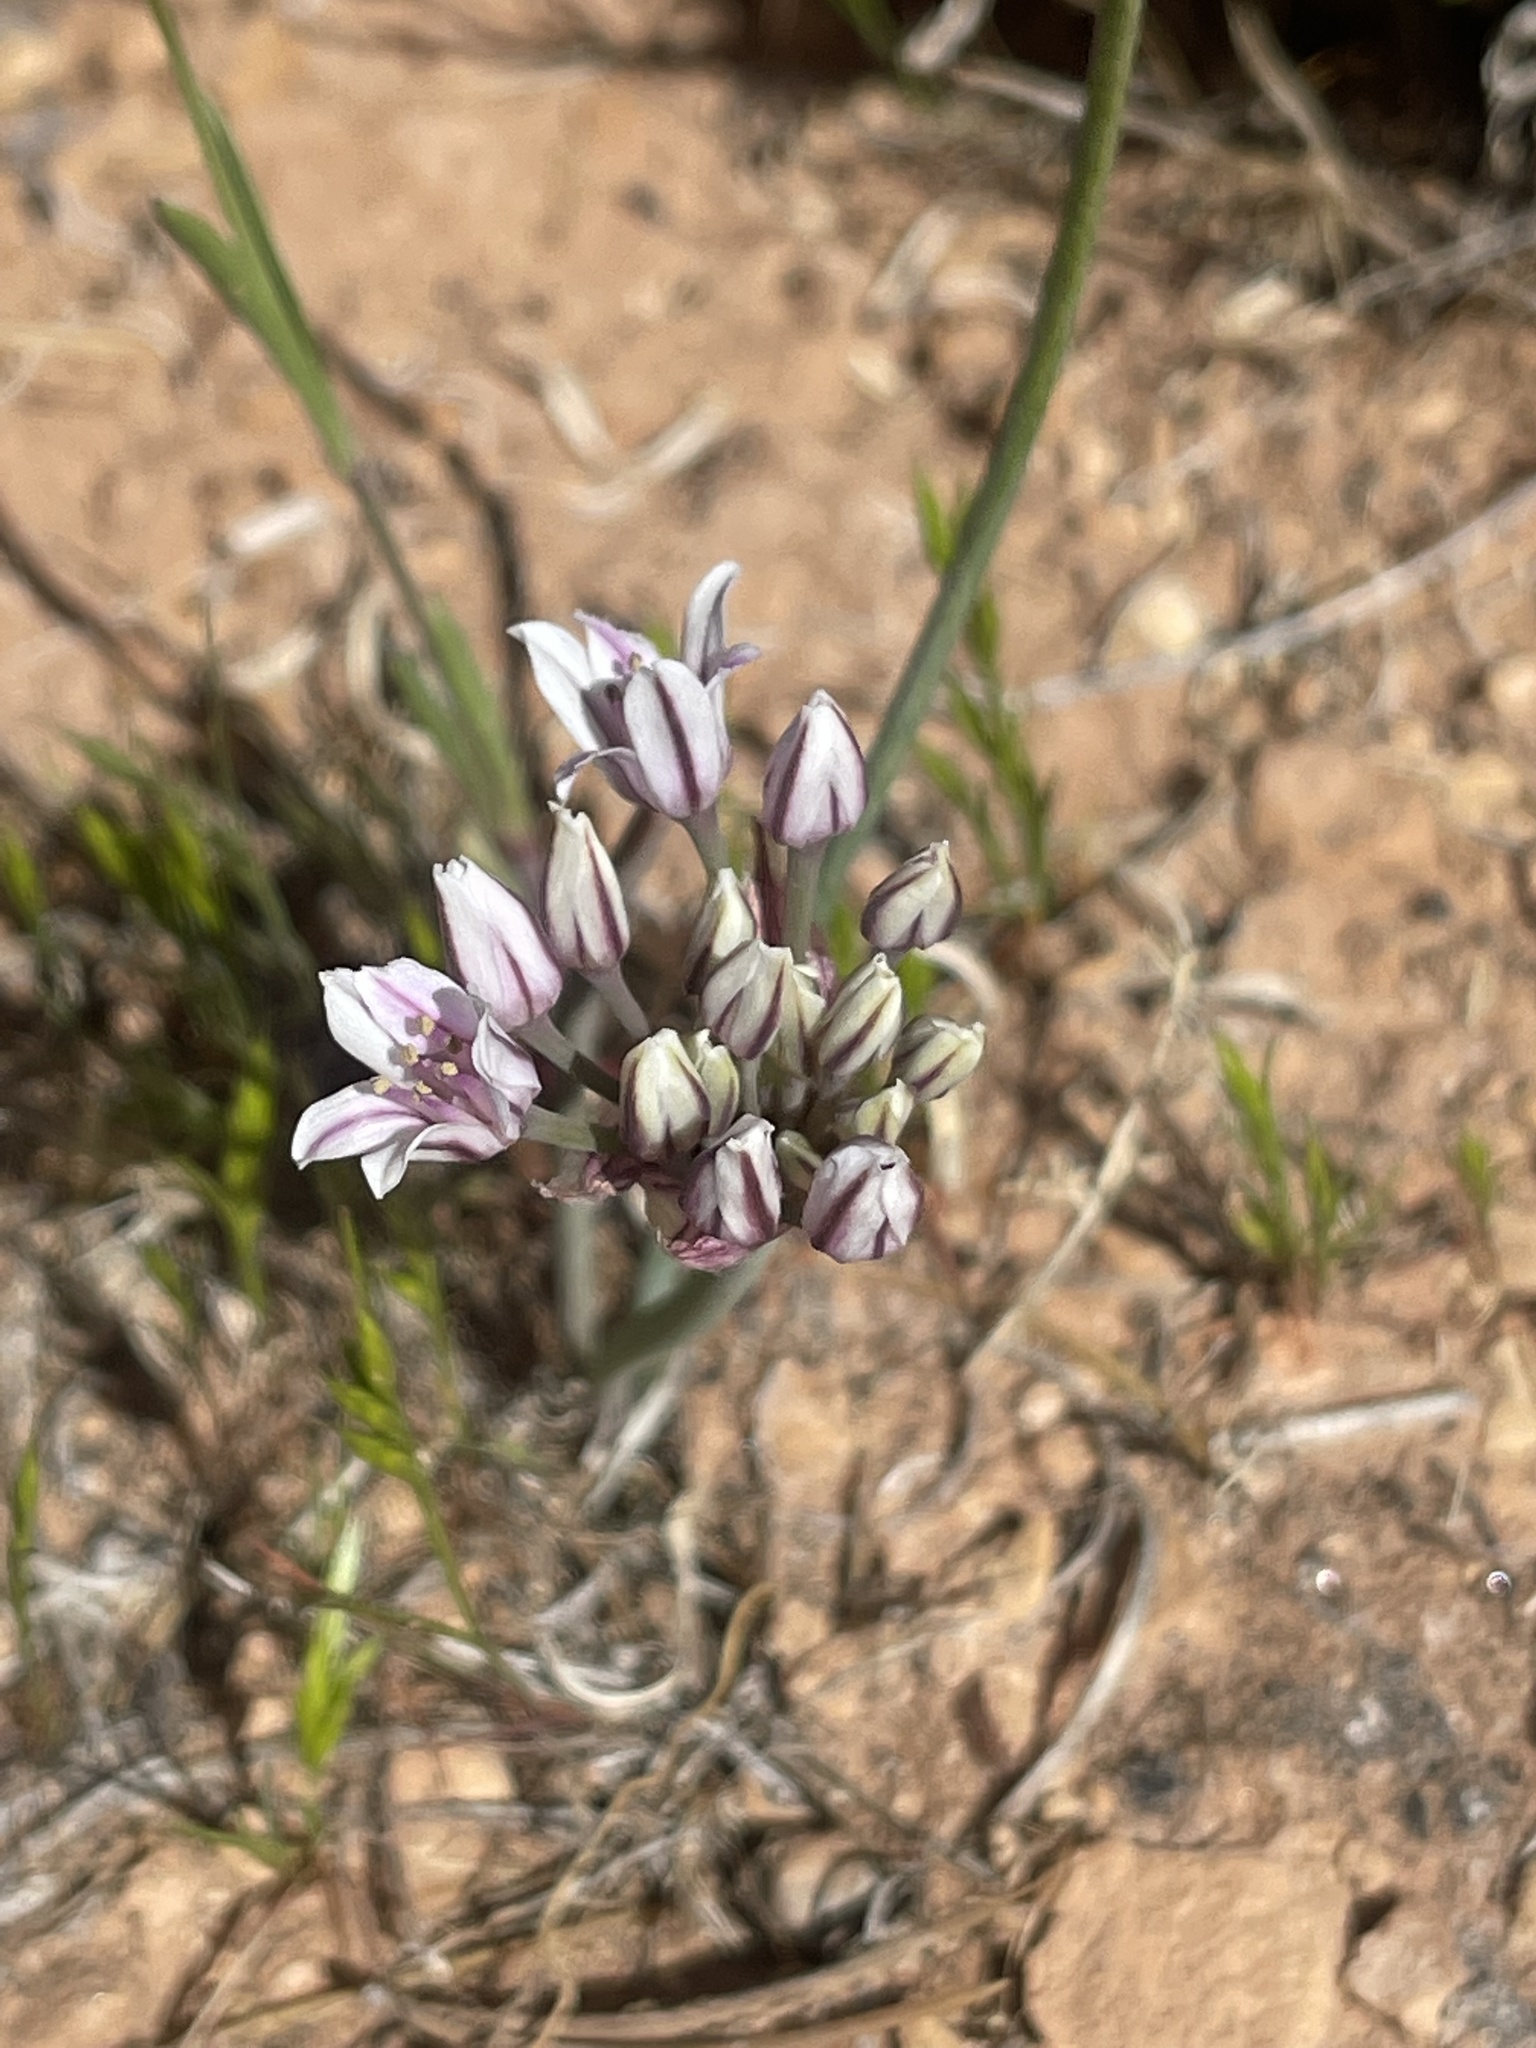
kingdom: Plantae
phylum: Tracheophyta
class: Liliopsida
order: Asparagales
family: Amaryllidaceae
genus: Allium
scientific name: Allium macropetalum
